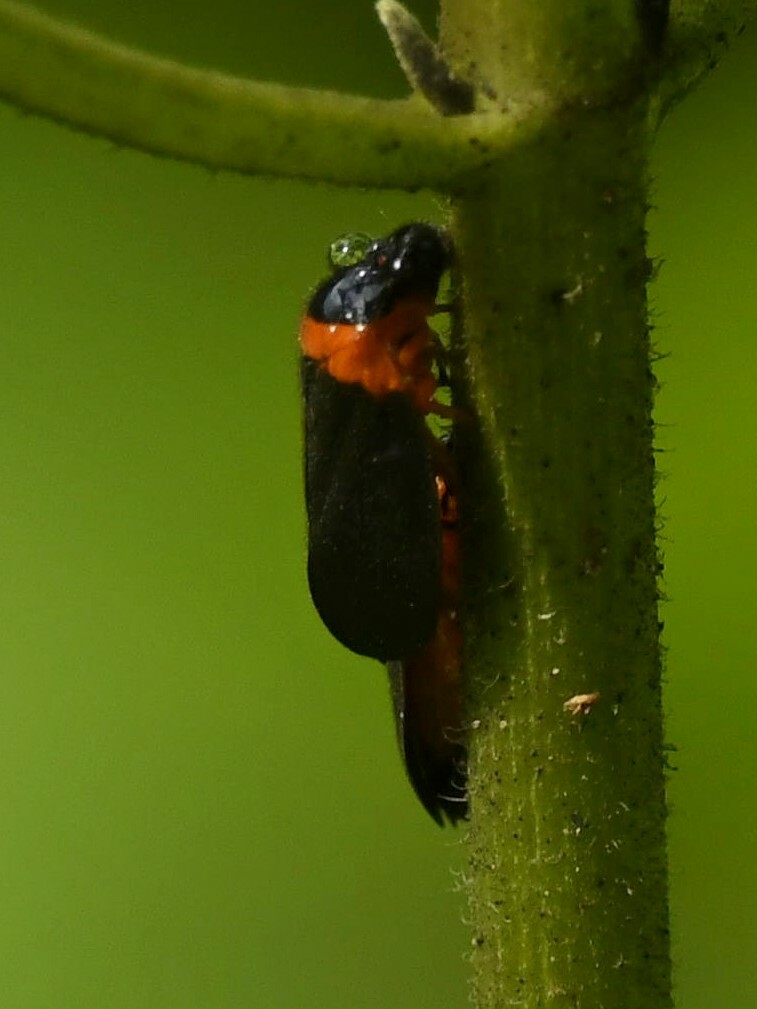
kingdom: Animalia
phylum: Arthropoda
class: Insecta
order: Hemiptera
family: Cercopidae
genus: Phymatostetha
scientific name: Phymatostetha deschampsi
